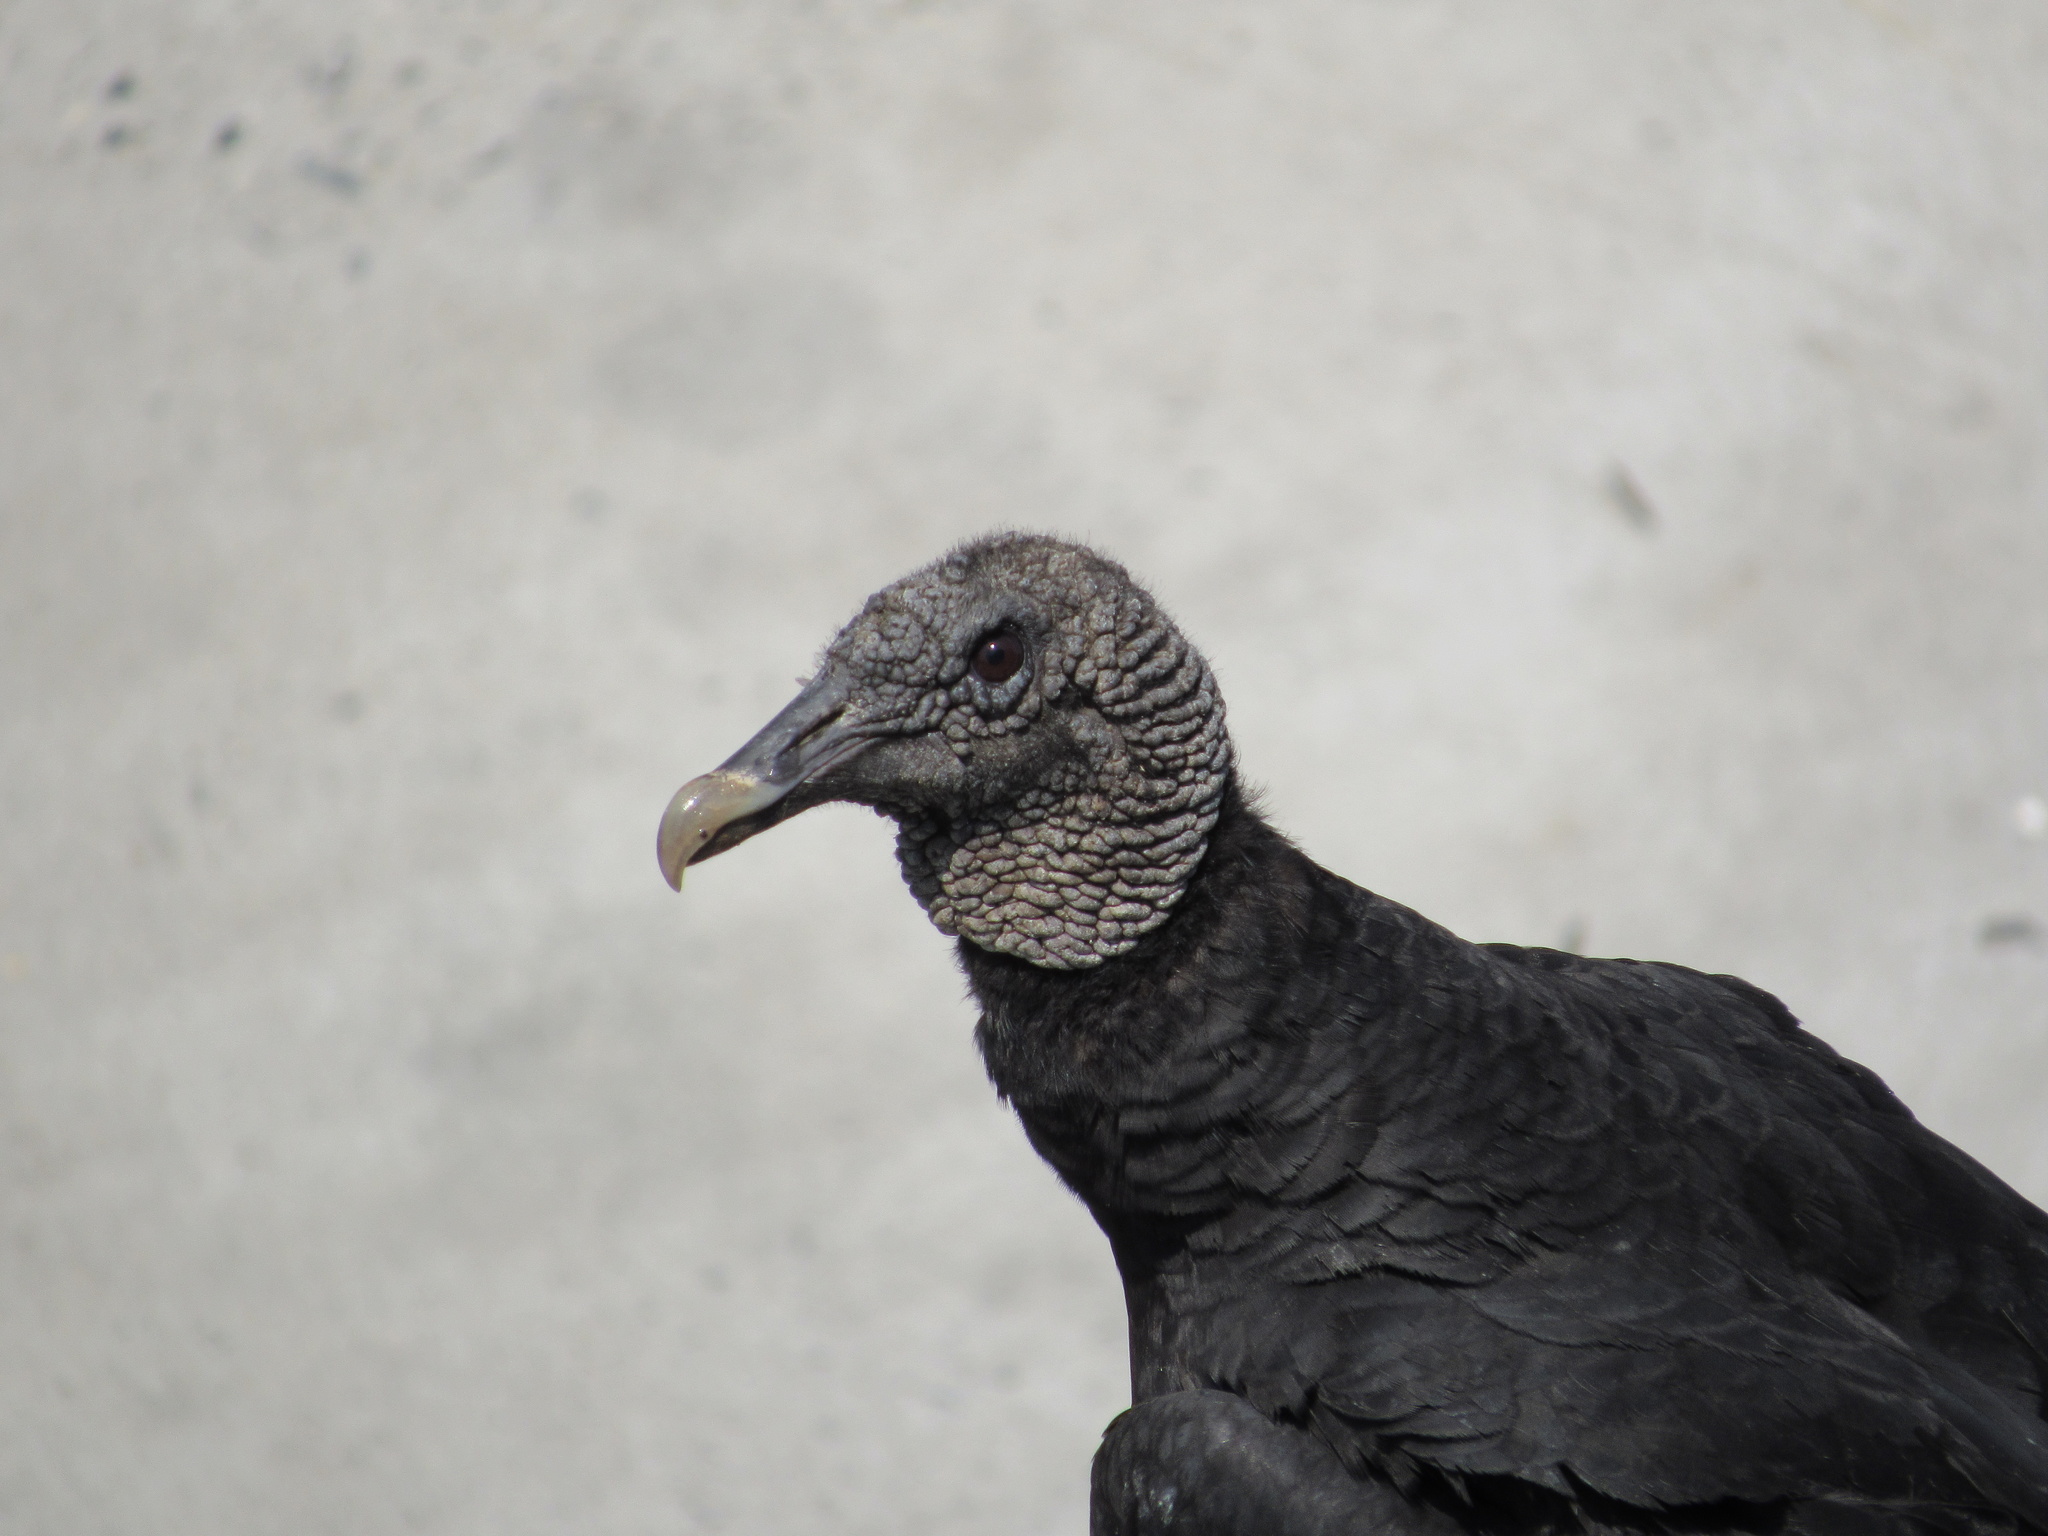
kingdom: Animalia
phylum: Chordata
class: Aves
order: Accipitriformes
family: Cathartidae
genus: Coragyps
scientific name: Coragyps atratus
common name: Black vulture
